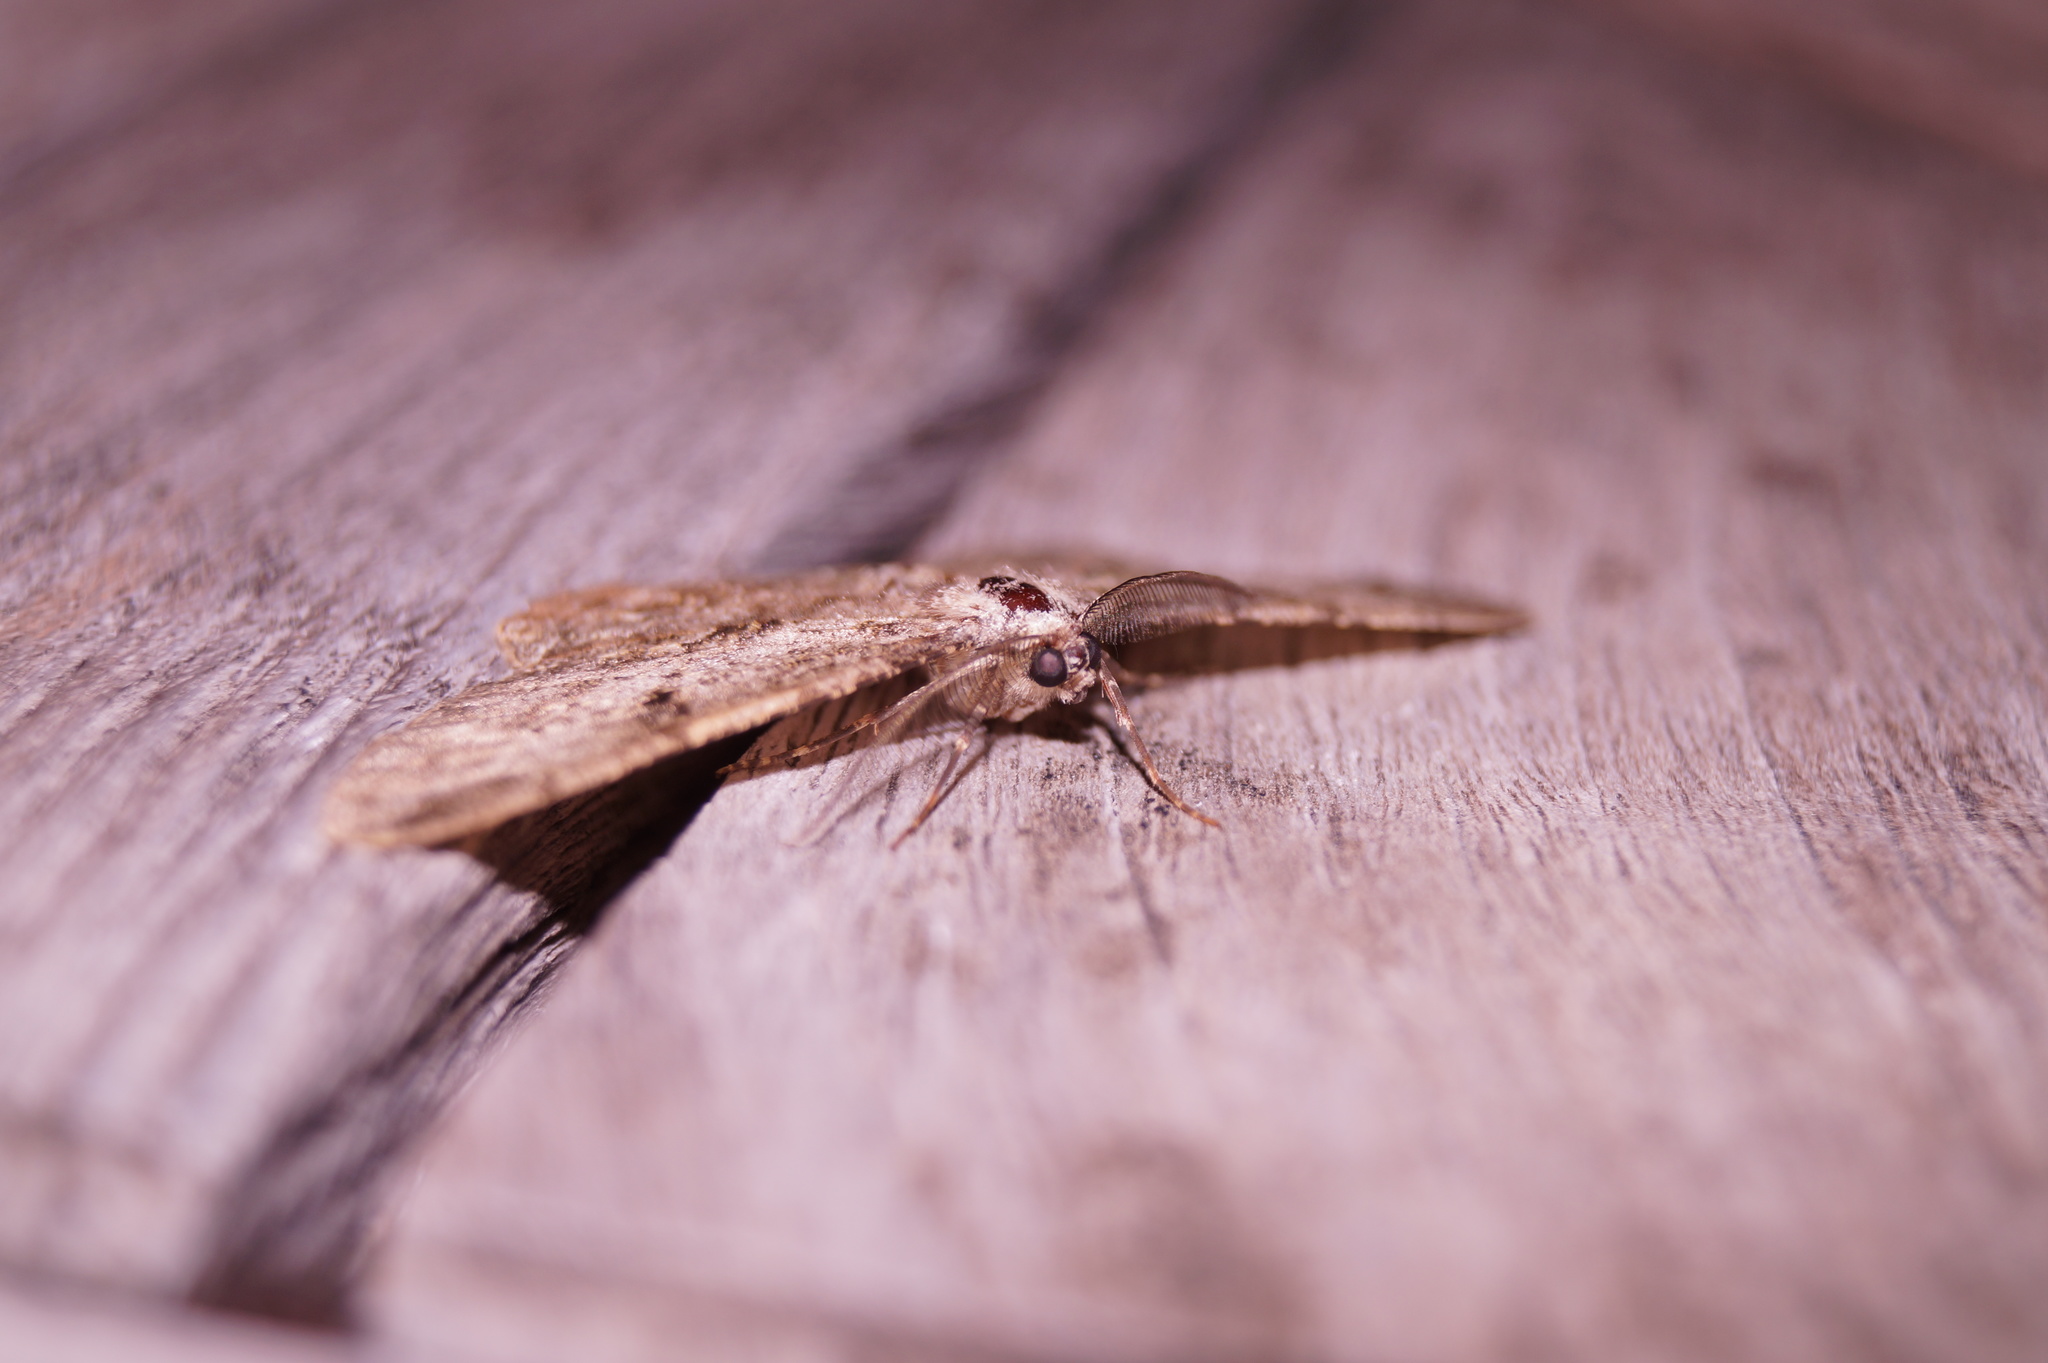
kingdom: Animalia
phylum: Arthropoda
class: Insecta
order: Lepidoptera
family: Geometridae
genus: Peribatodes
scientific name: Peribatodes rhomboidaria
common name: Willow beauty
